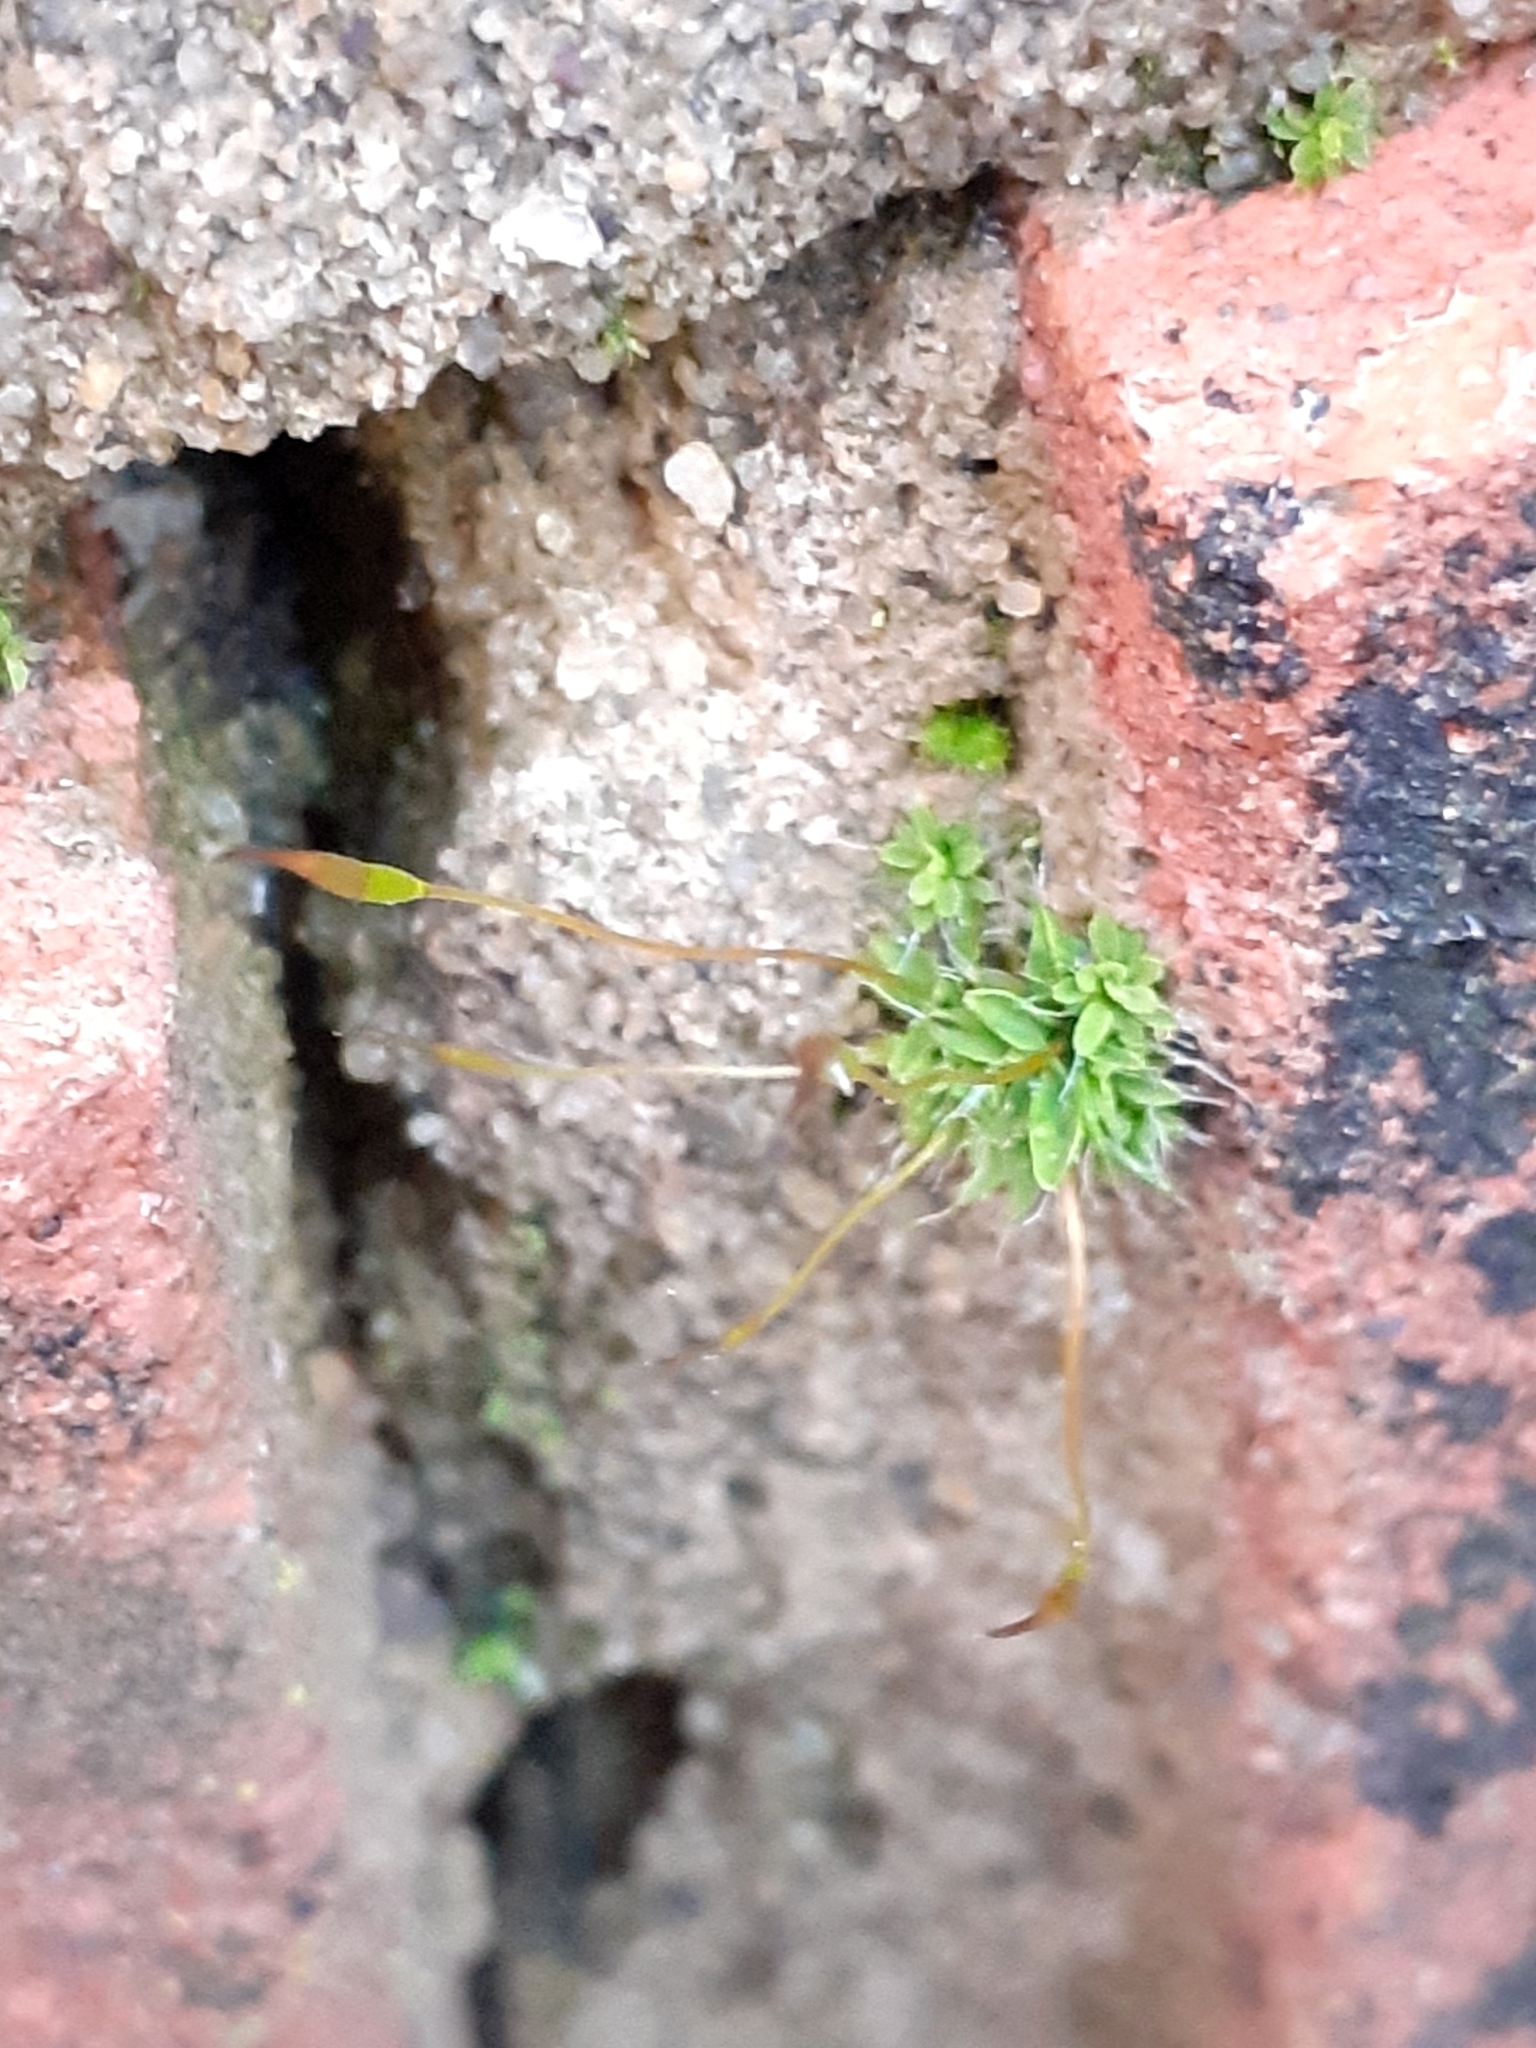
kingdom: Plantae
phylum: Bryophyta
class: Bryopsida
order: Pottiales
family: Pottiaceae
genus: Tortula
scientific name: Tortula muralis
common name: Wall screw-moss
